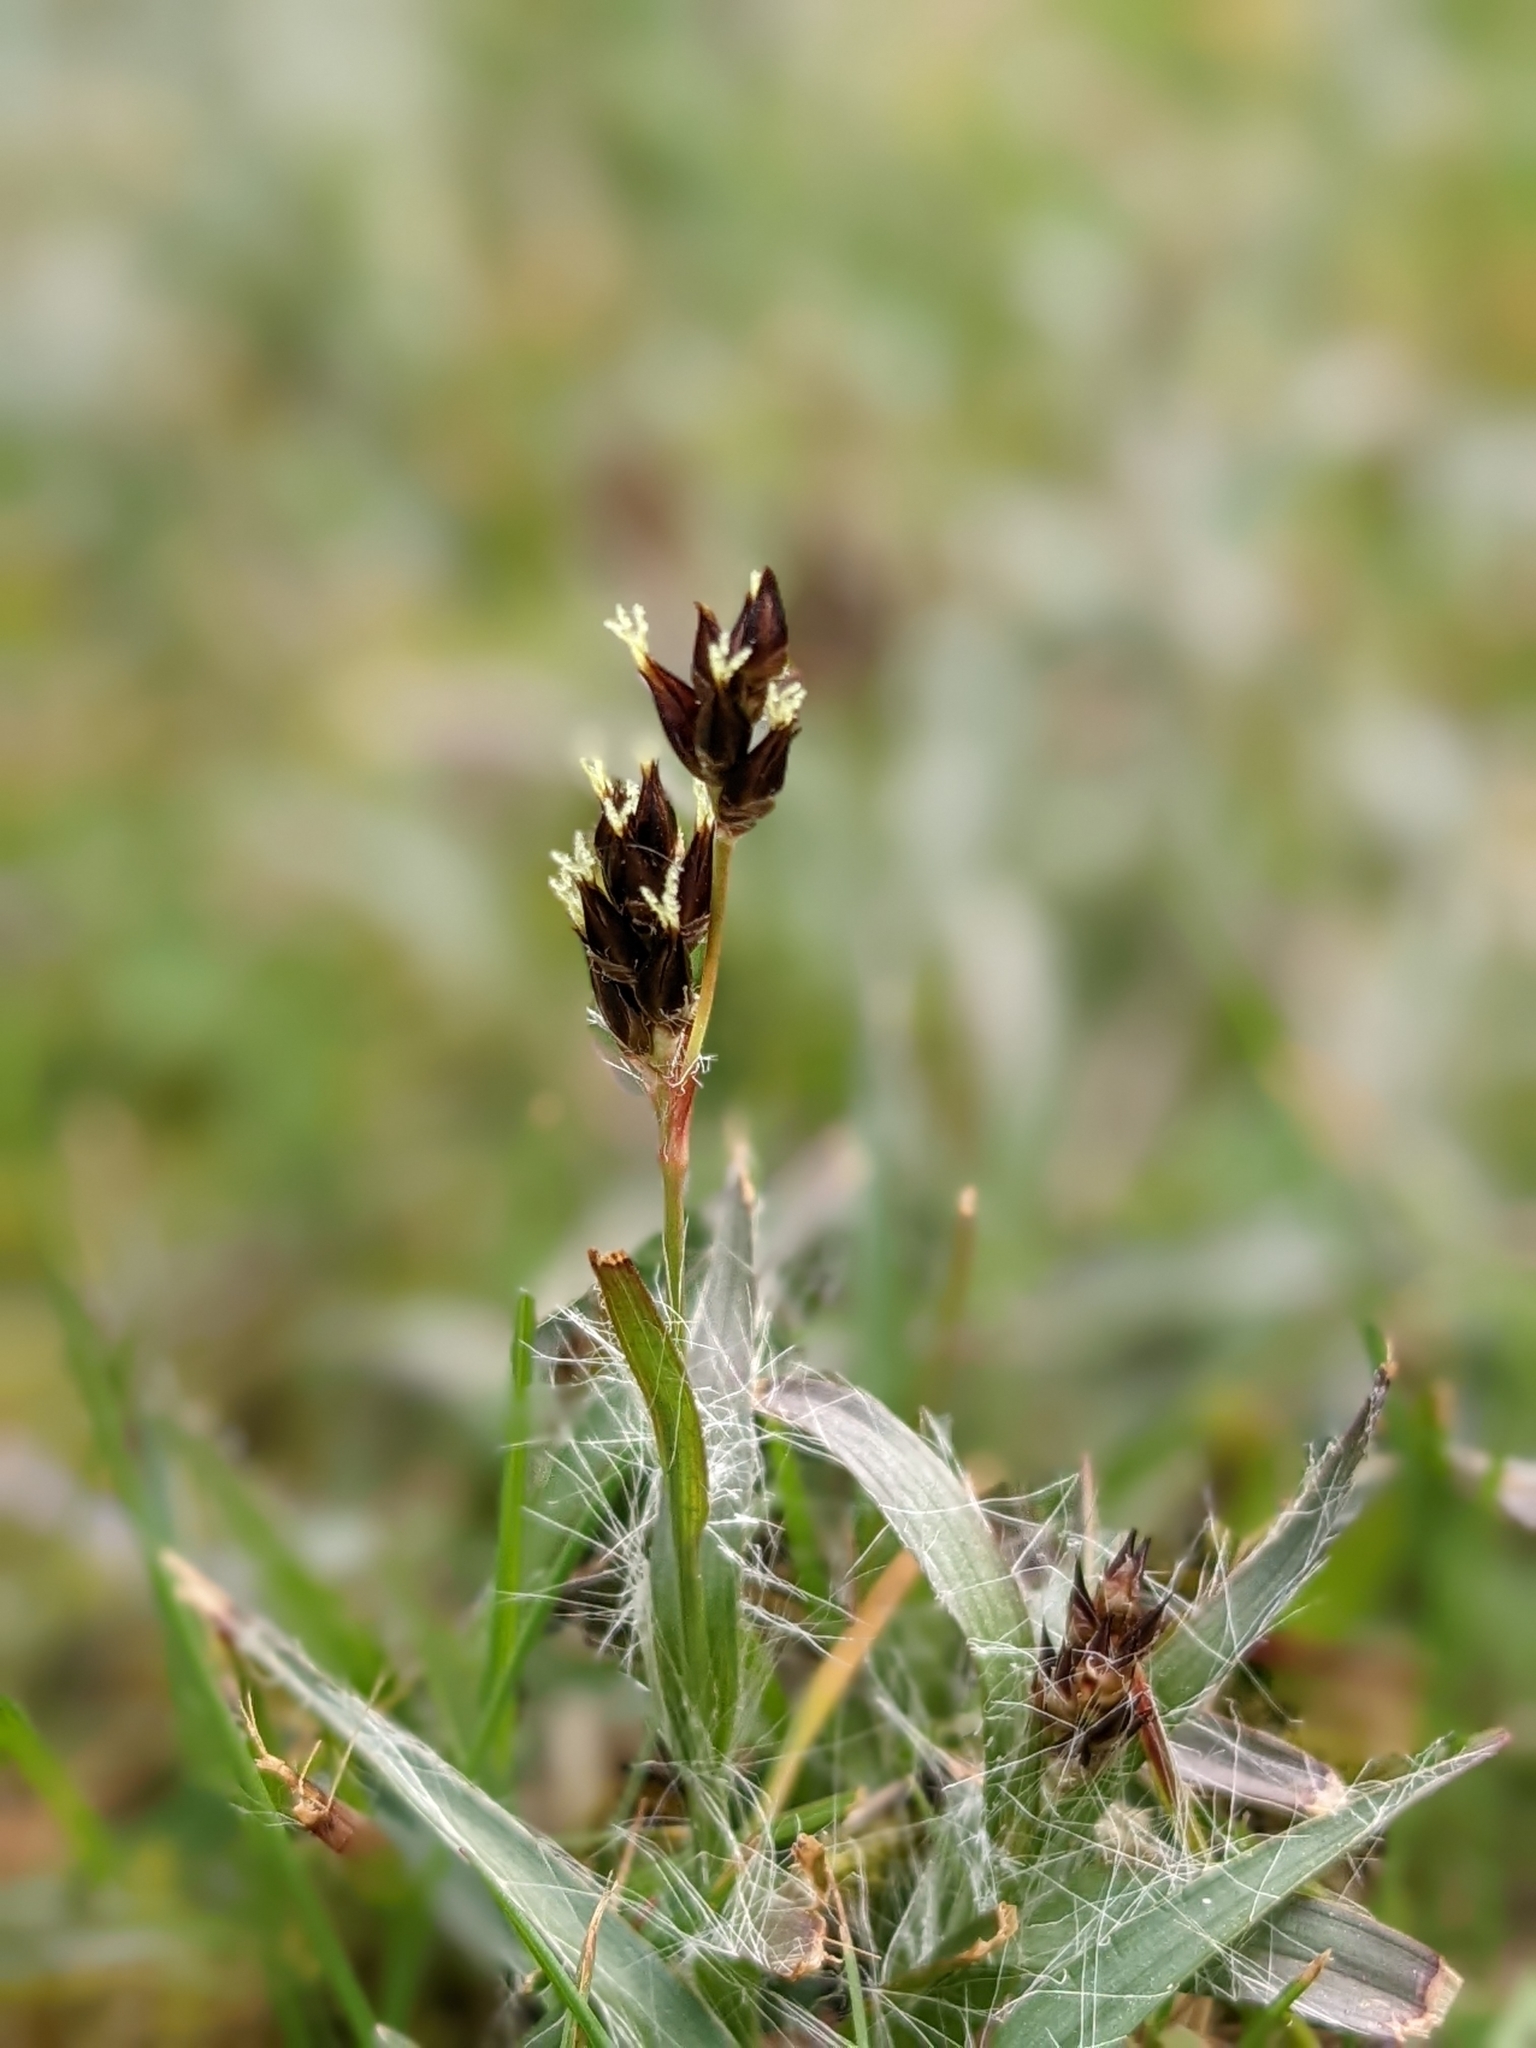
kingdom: Plantae
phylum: Tracheophyta
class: Liliopsida
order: Poales
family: Juncaceae
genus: Luzula
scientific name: Luzula campestris
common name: Field wood-rush
